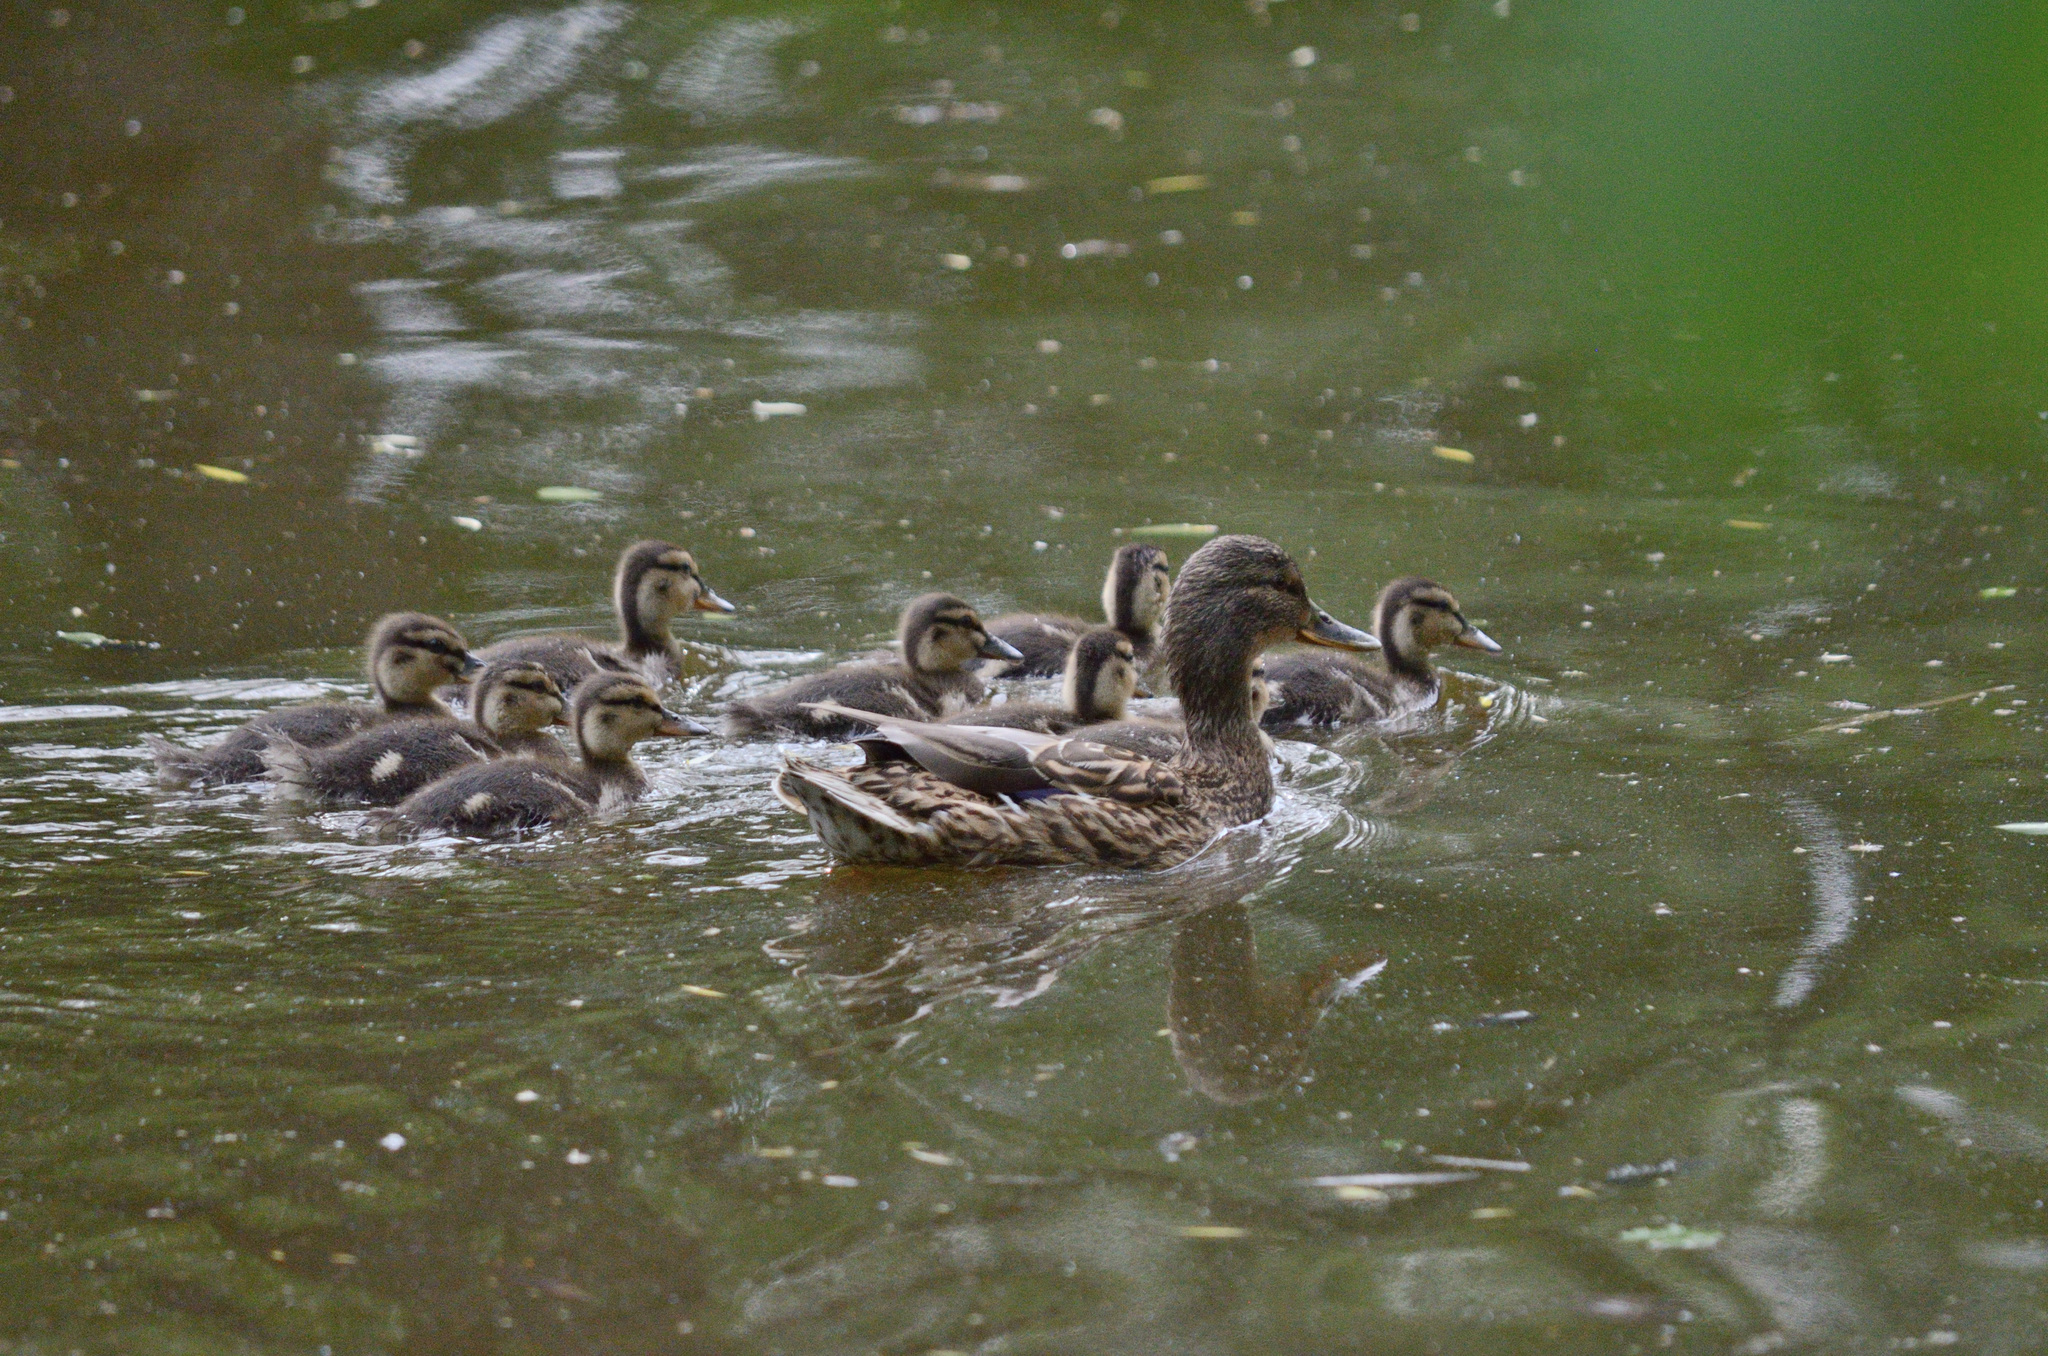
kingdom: Animalia
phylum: Chordata
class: Aves
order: Anseriformes
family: Anatidae
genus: Anas
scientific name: Anas platyrhynchos
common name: Mallard
